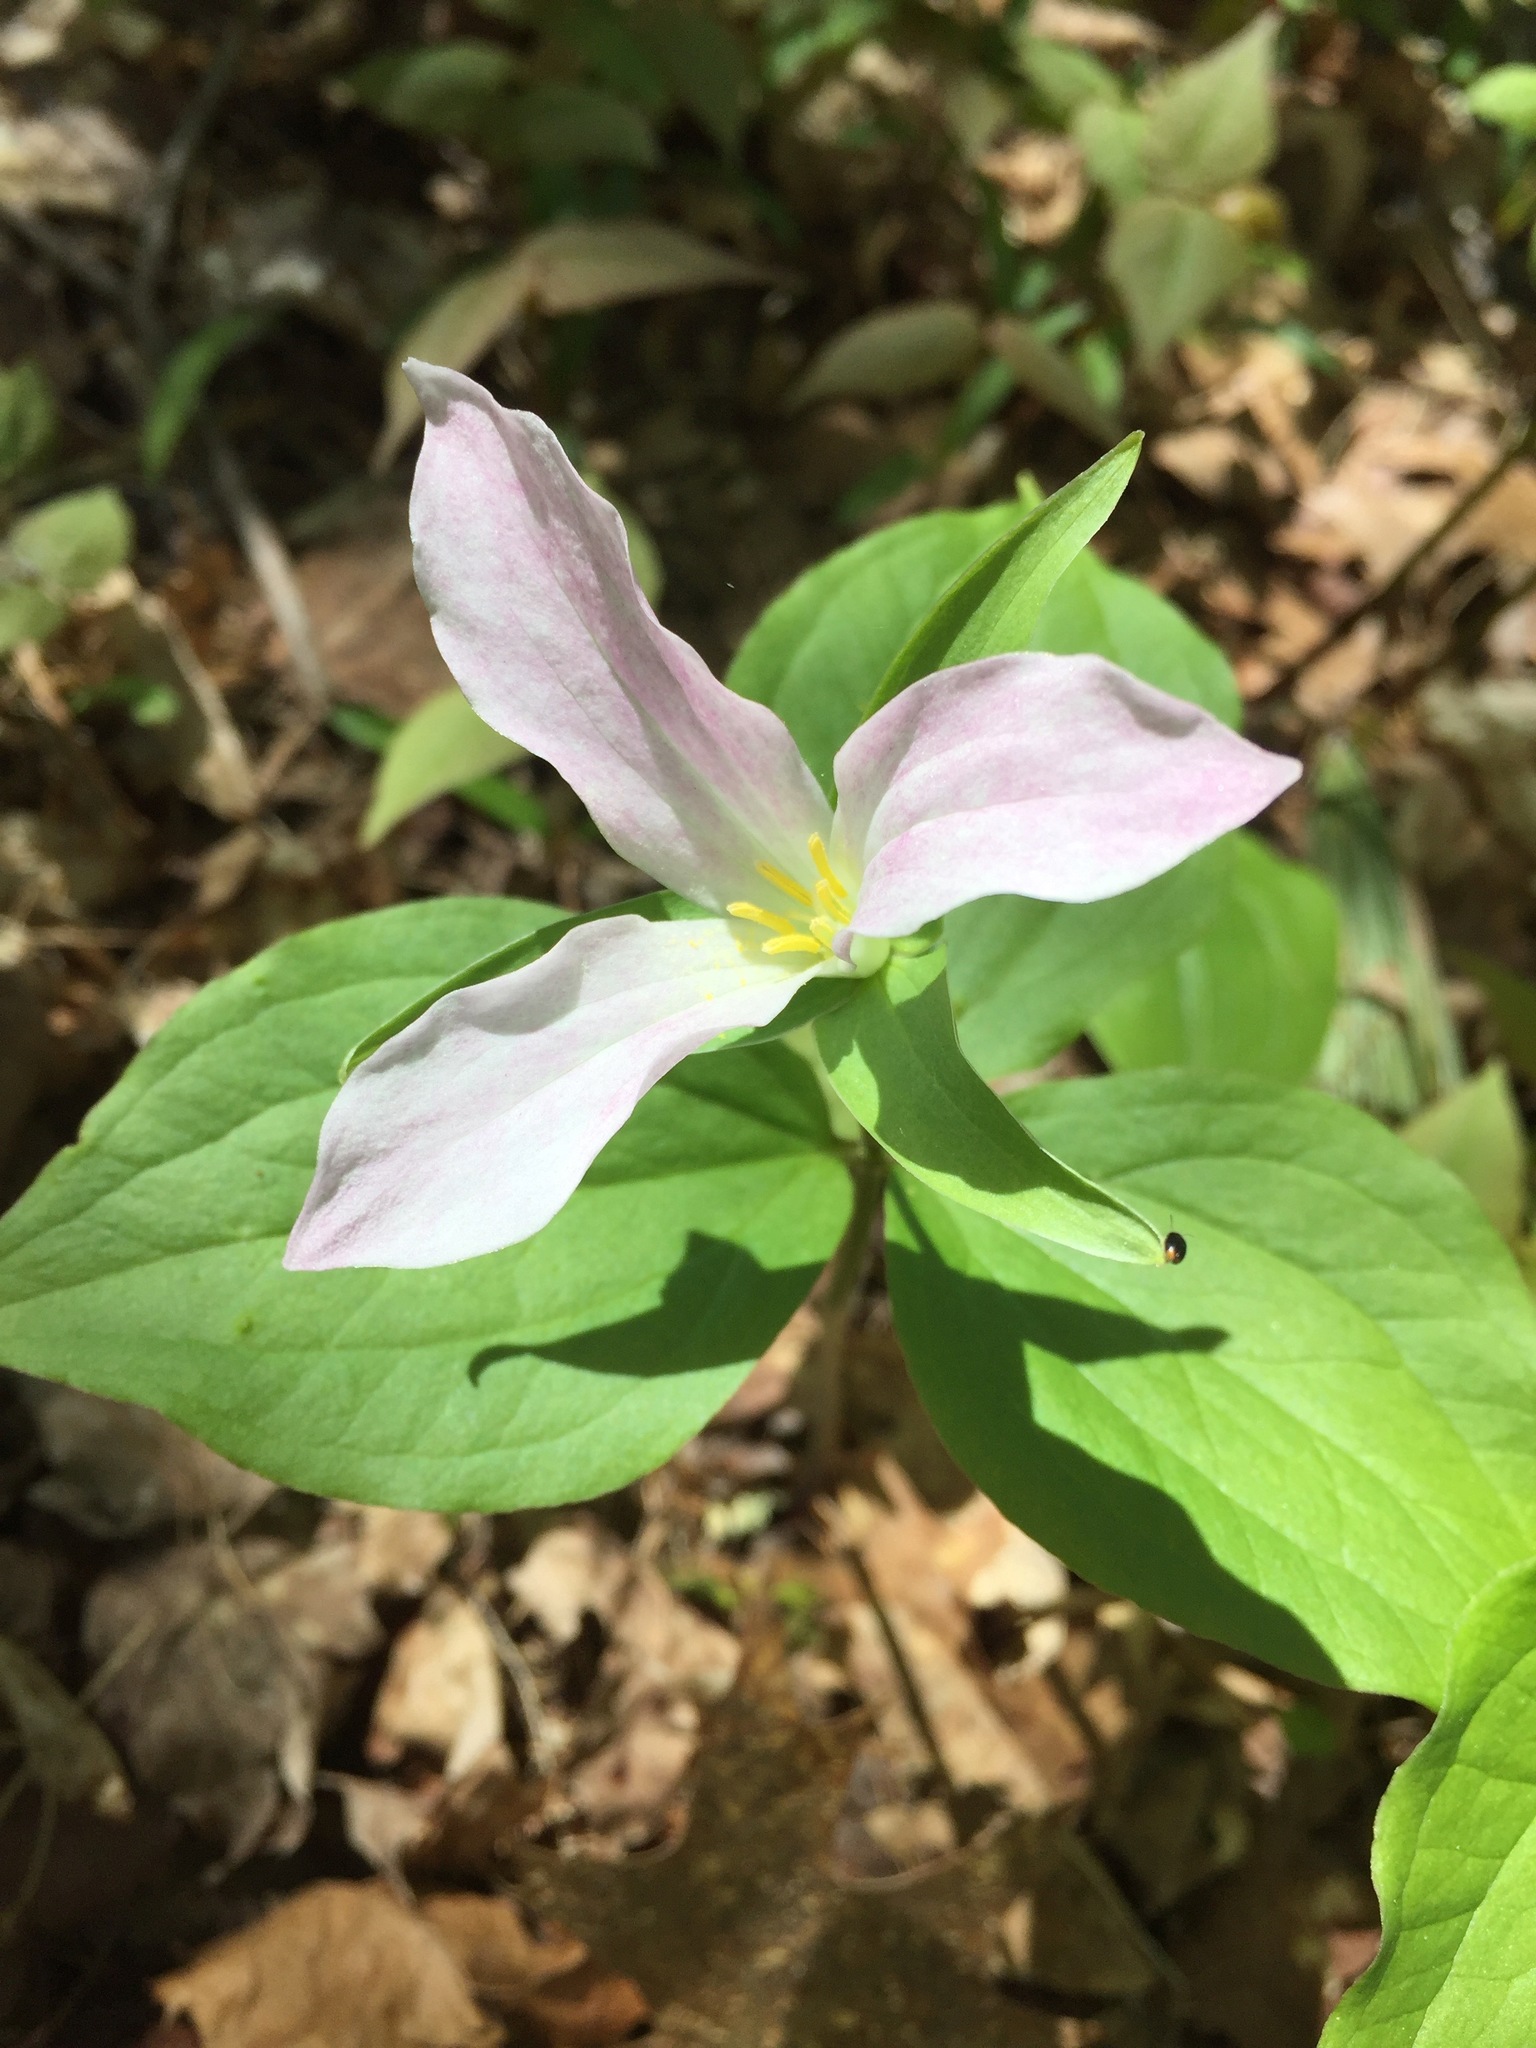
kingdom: Plantae
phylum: Tracheophyta
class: Liliopsida
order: Liliales
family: Melanthiaceae
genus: Trillium
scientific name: Trillium grandiflorum
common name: Great white trillium
